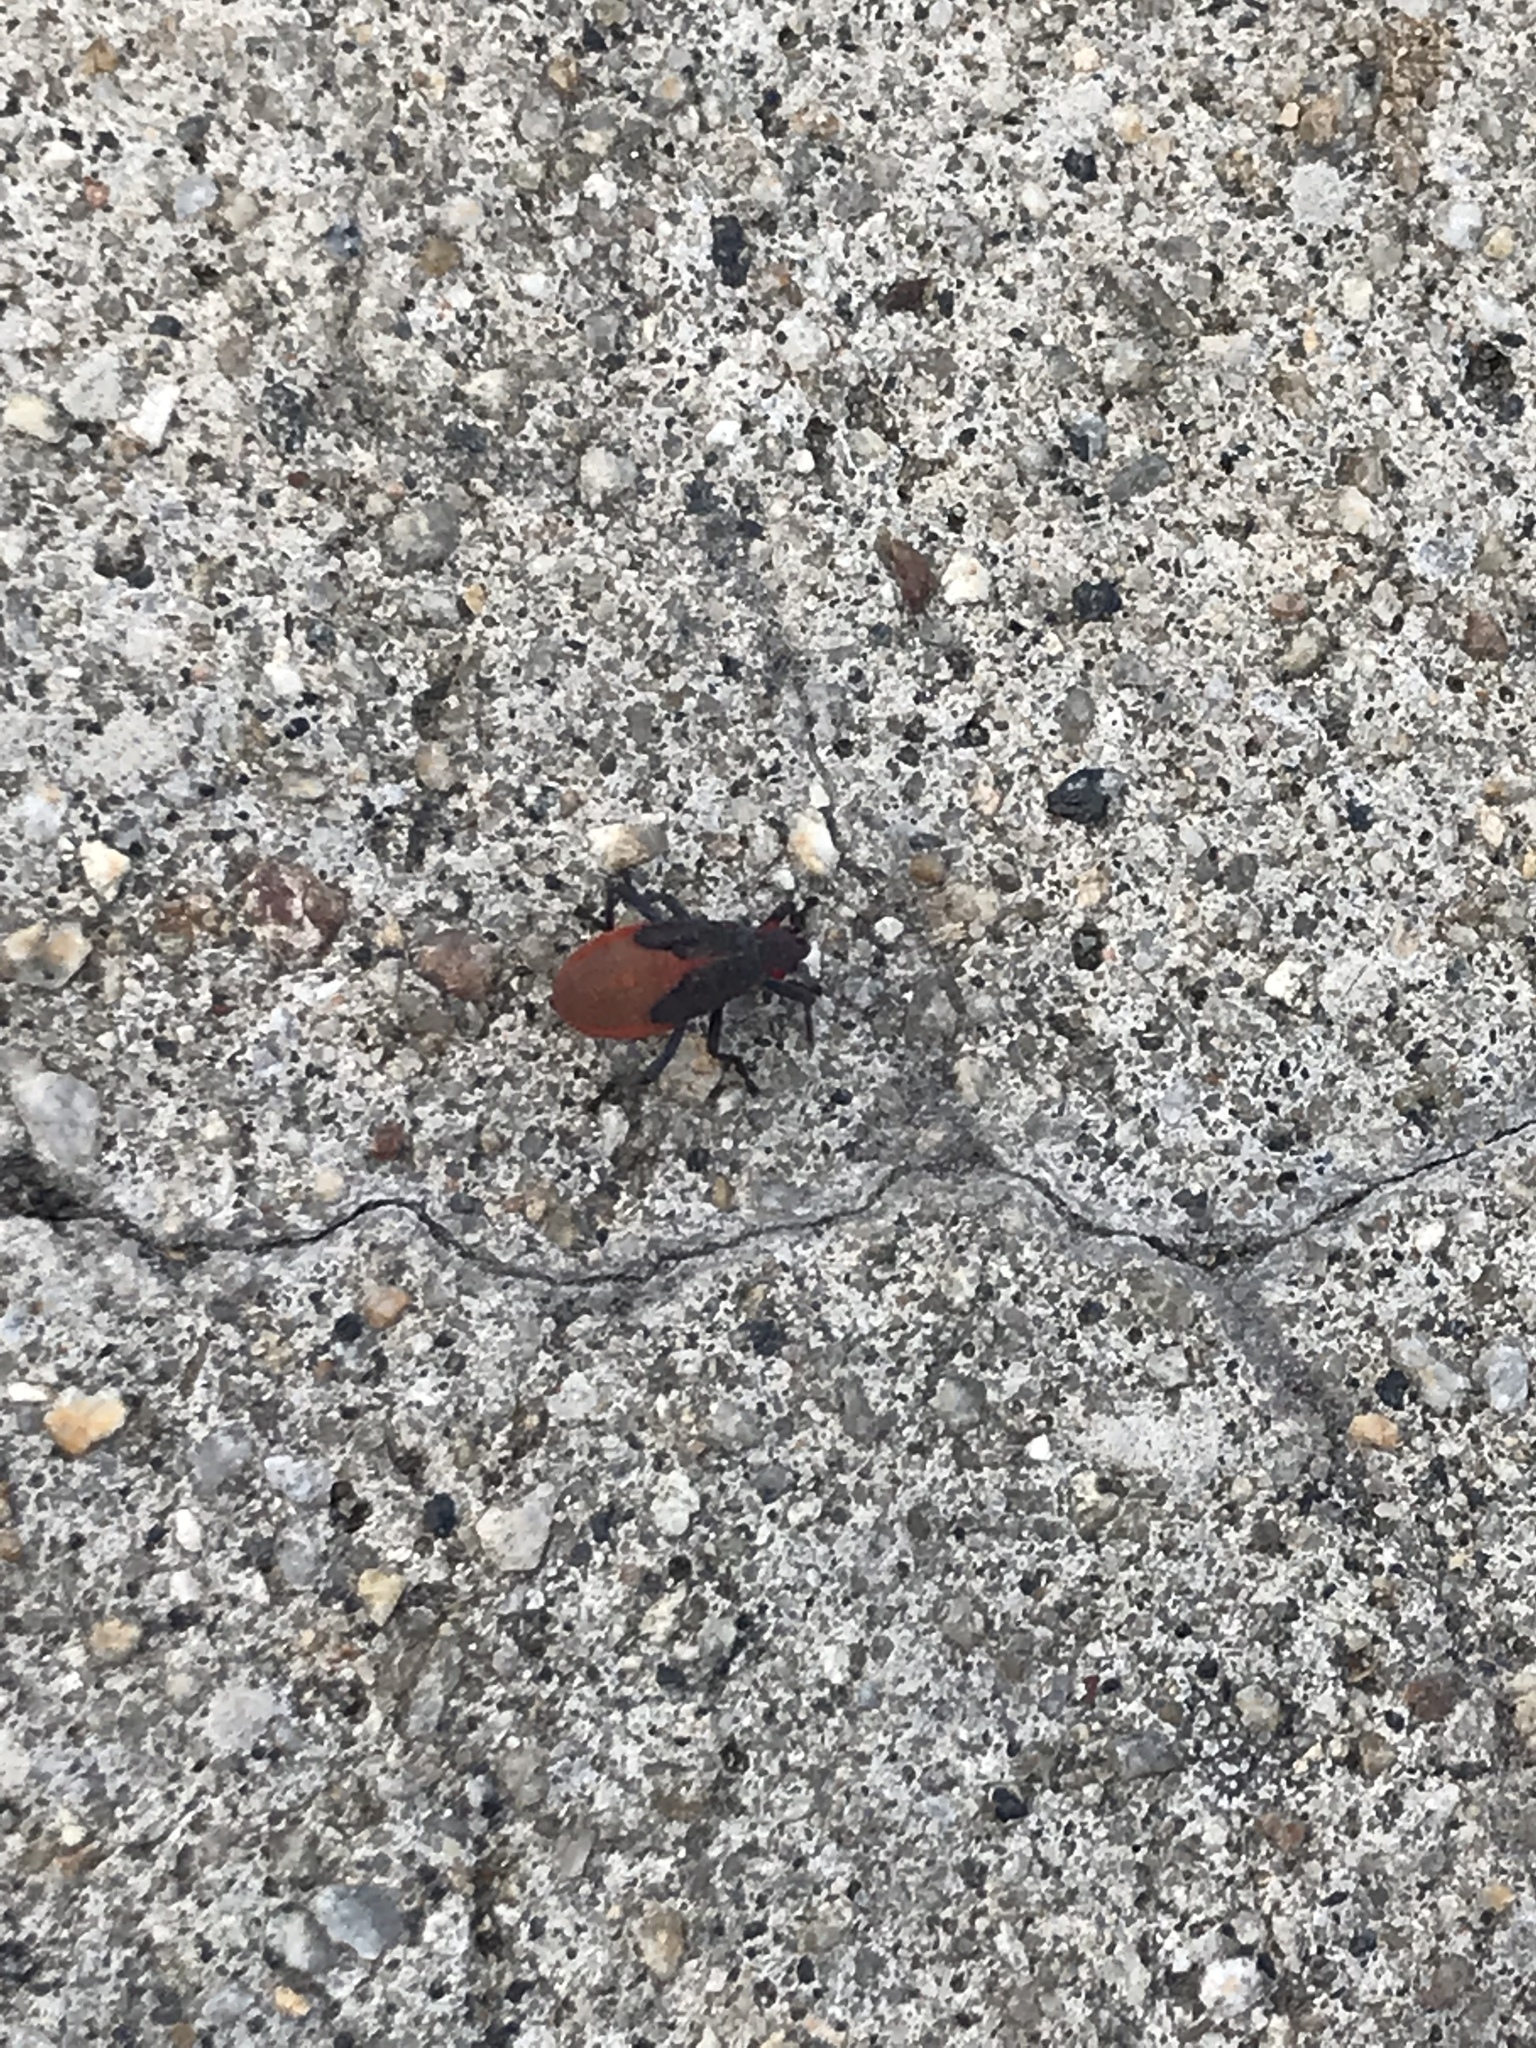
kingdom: Animalia
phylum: Arthropoda
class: Insecta
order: Hemiptera
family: Rhopalidae
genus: Jadera
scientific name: Jadera haematoloma
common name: Red-shouldered bug
